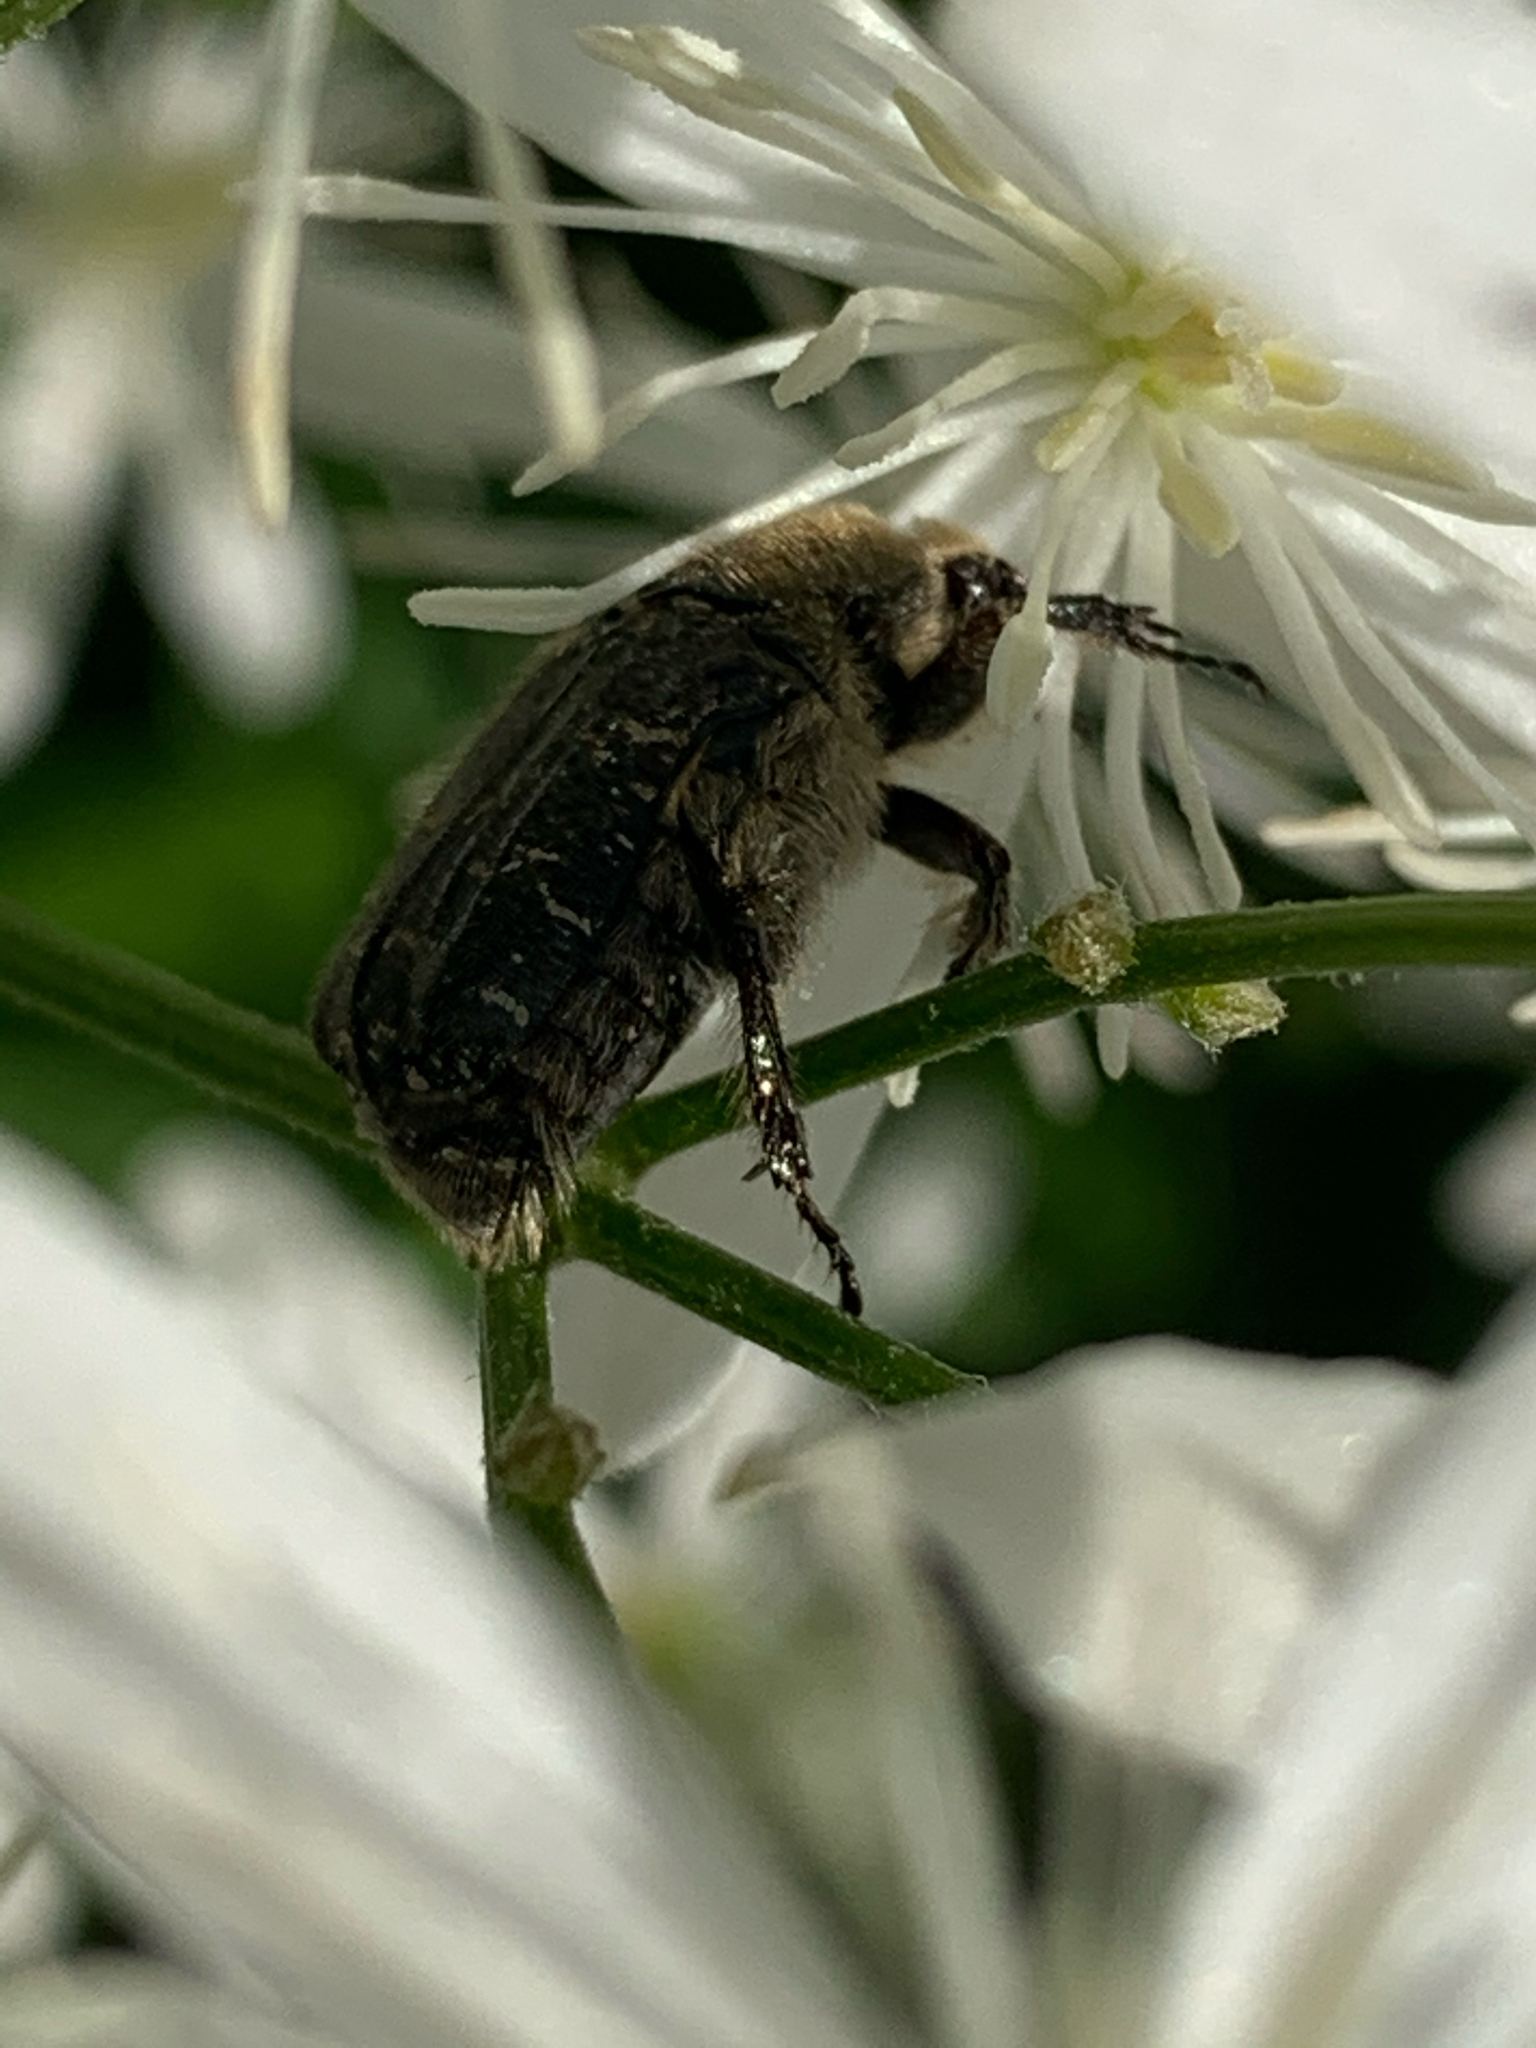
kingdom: Animalia
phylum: Arthropoda
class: Insecta
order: Coleoptera
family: Scarabaeidae
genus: Euphoria
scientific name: Euphoria sepulcralis
